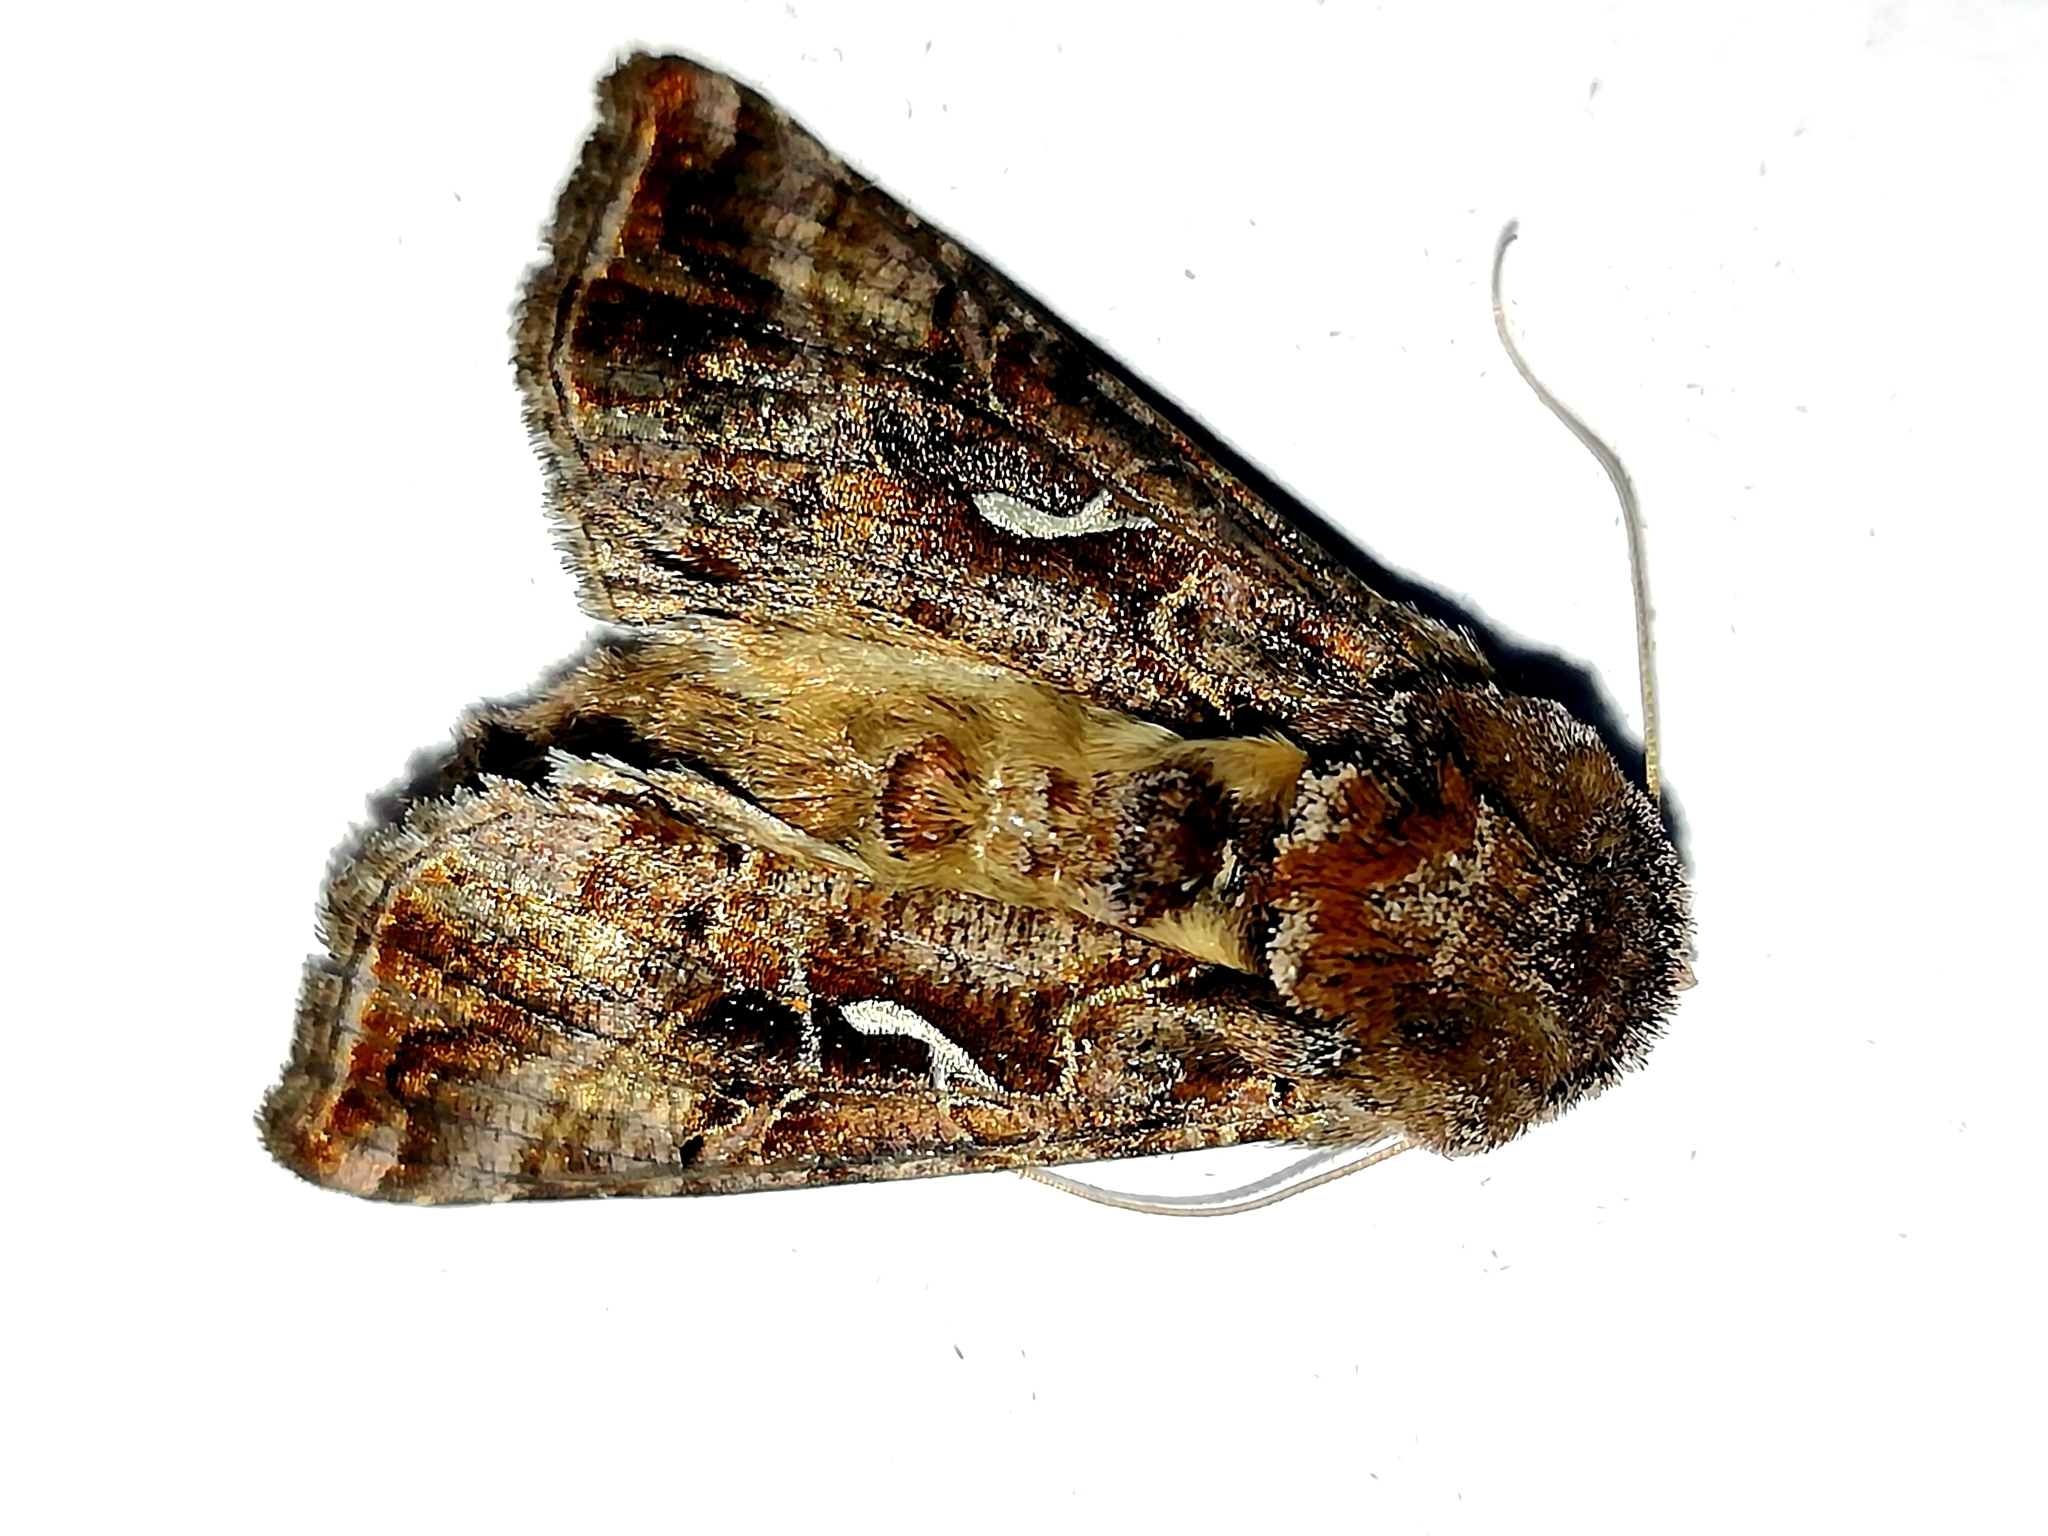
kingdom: Animalia
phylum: Arthropoda
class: Insecta
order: Lepidoptera
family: Noctuidae
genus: Autographa
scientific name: Autographa gamma
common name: Silver y
